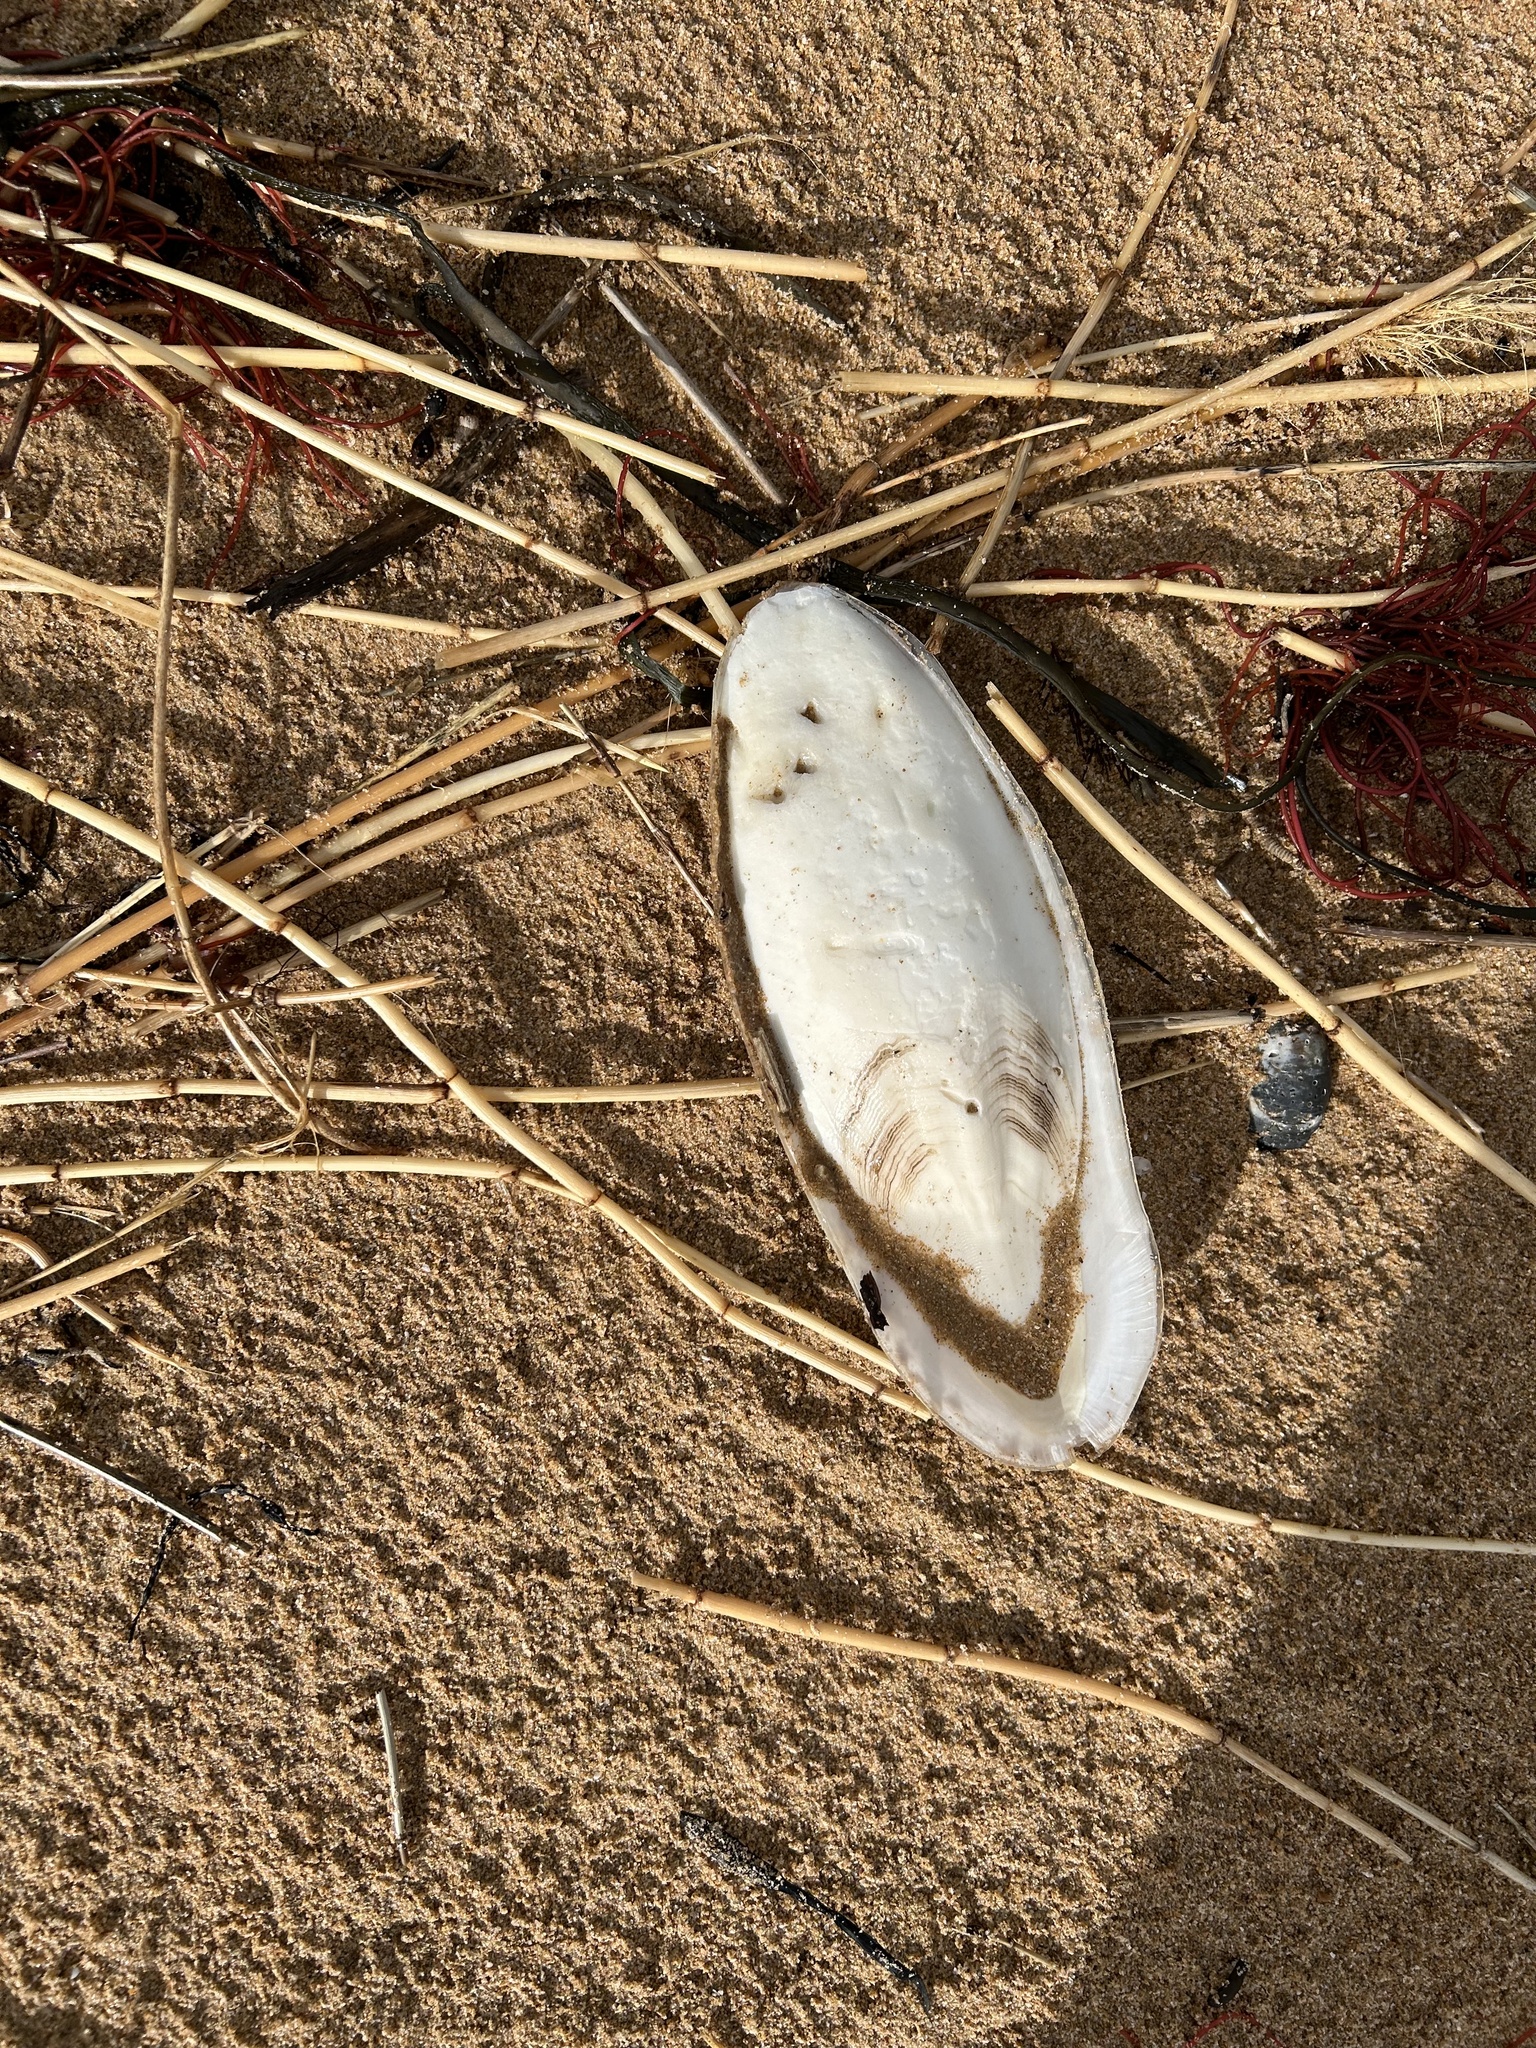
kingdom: Animalia
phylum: Mollusca
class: Cephalopoda
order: Sepiida
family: Sepiidae
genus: Sepia
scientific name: Sepia officinalis
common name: Common cuttlefish
